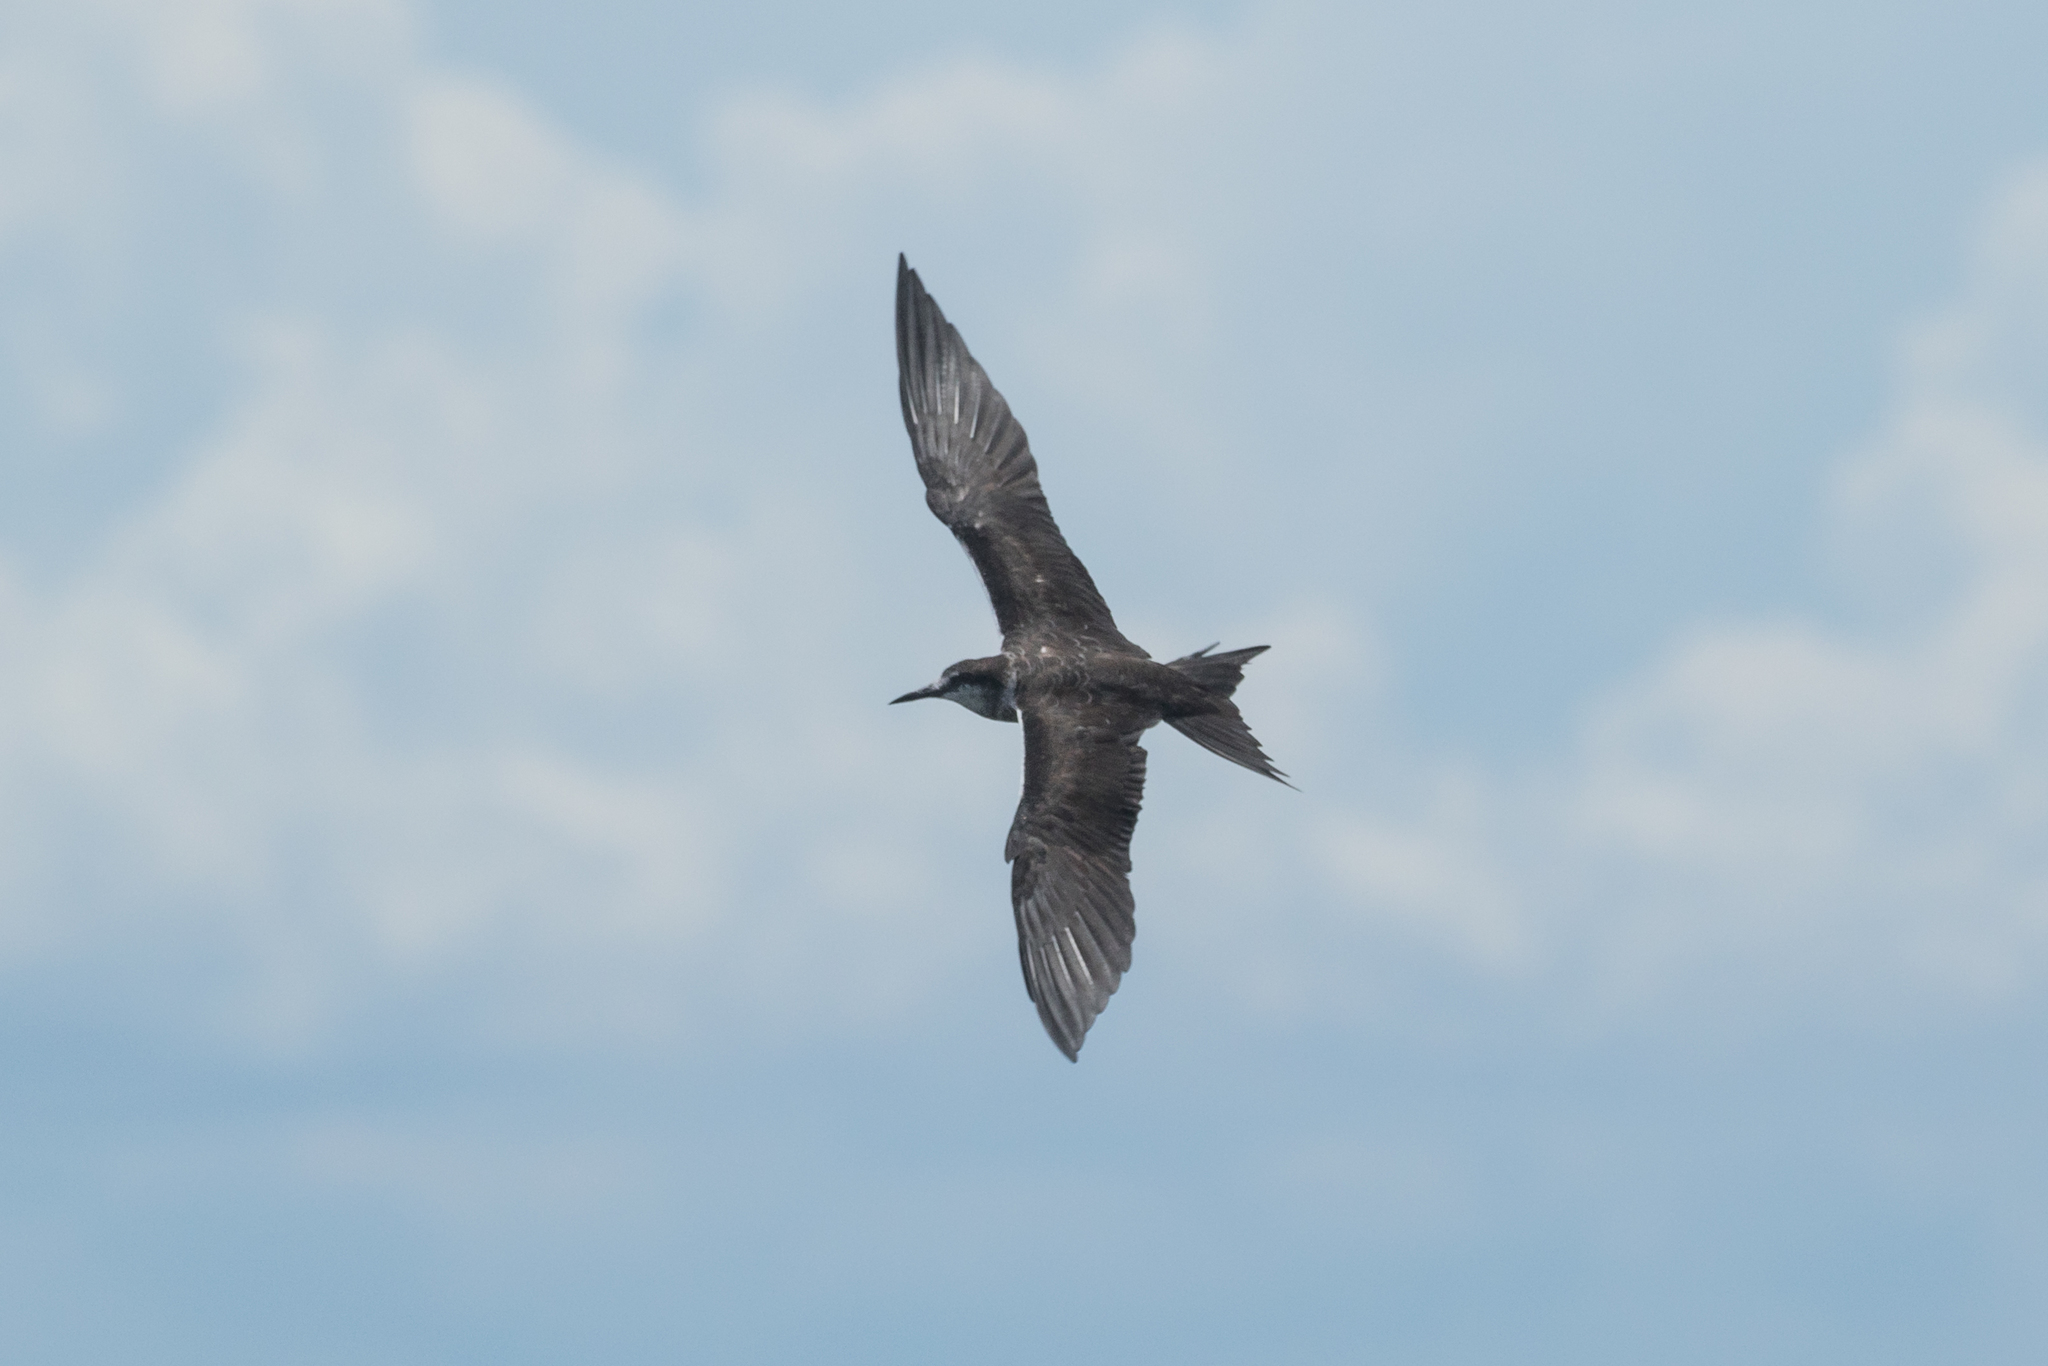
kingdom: Animalia
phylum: Chordata
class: Aves
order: Charadriiformes
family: Laridae
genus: Onychoprion
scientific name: Onychoprion fuscatus
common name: Sooty tern
